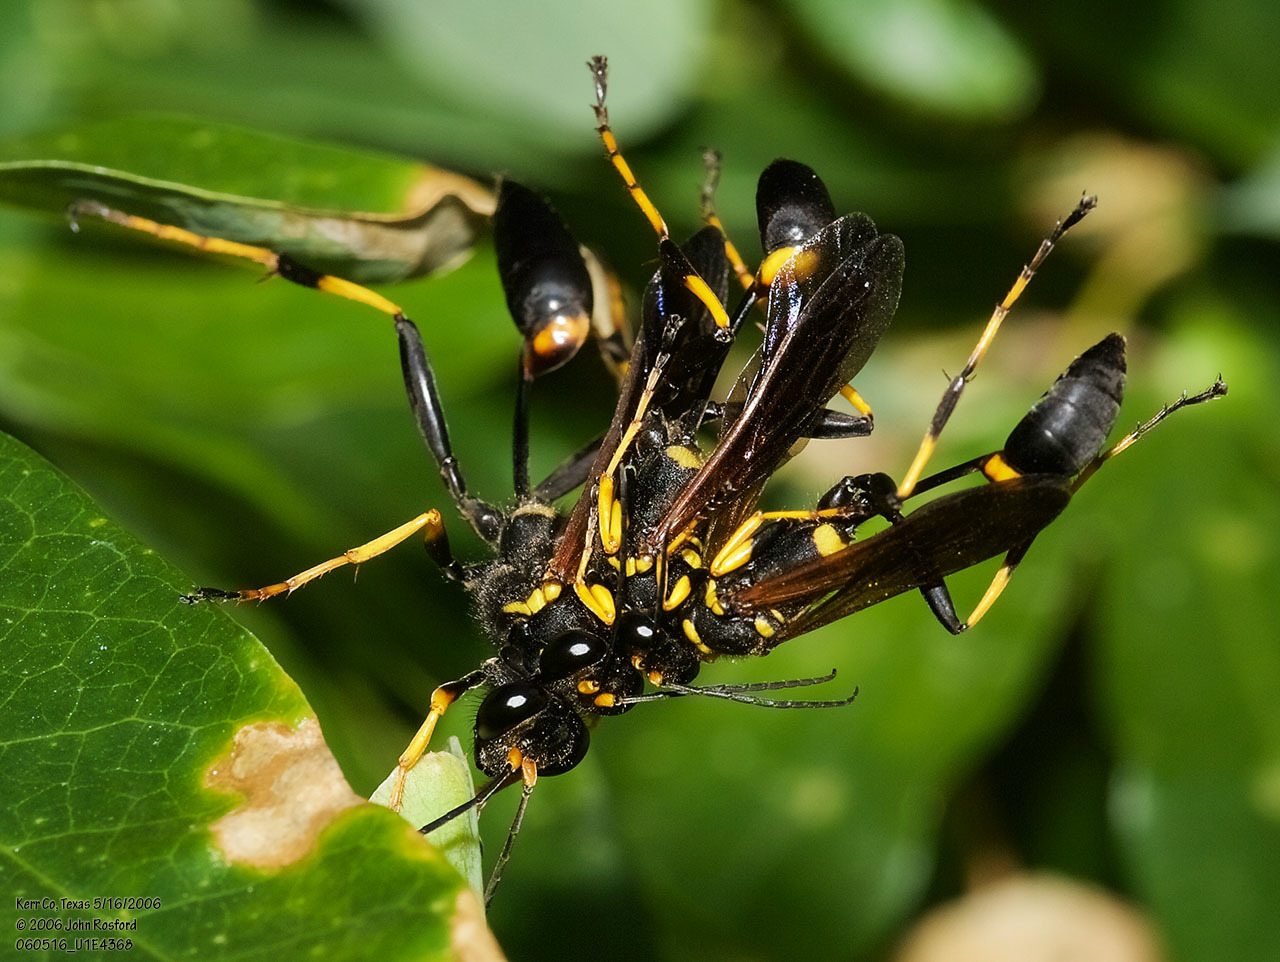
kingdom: Animalia
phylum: Arthropoda
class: Insecta
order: Hymenoptera
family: Sphecidae
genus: Sceliphron
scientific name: Sceliphron caementarium
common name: Mud dauber
